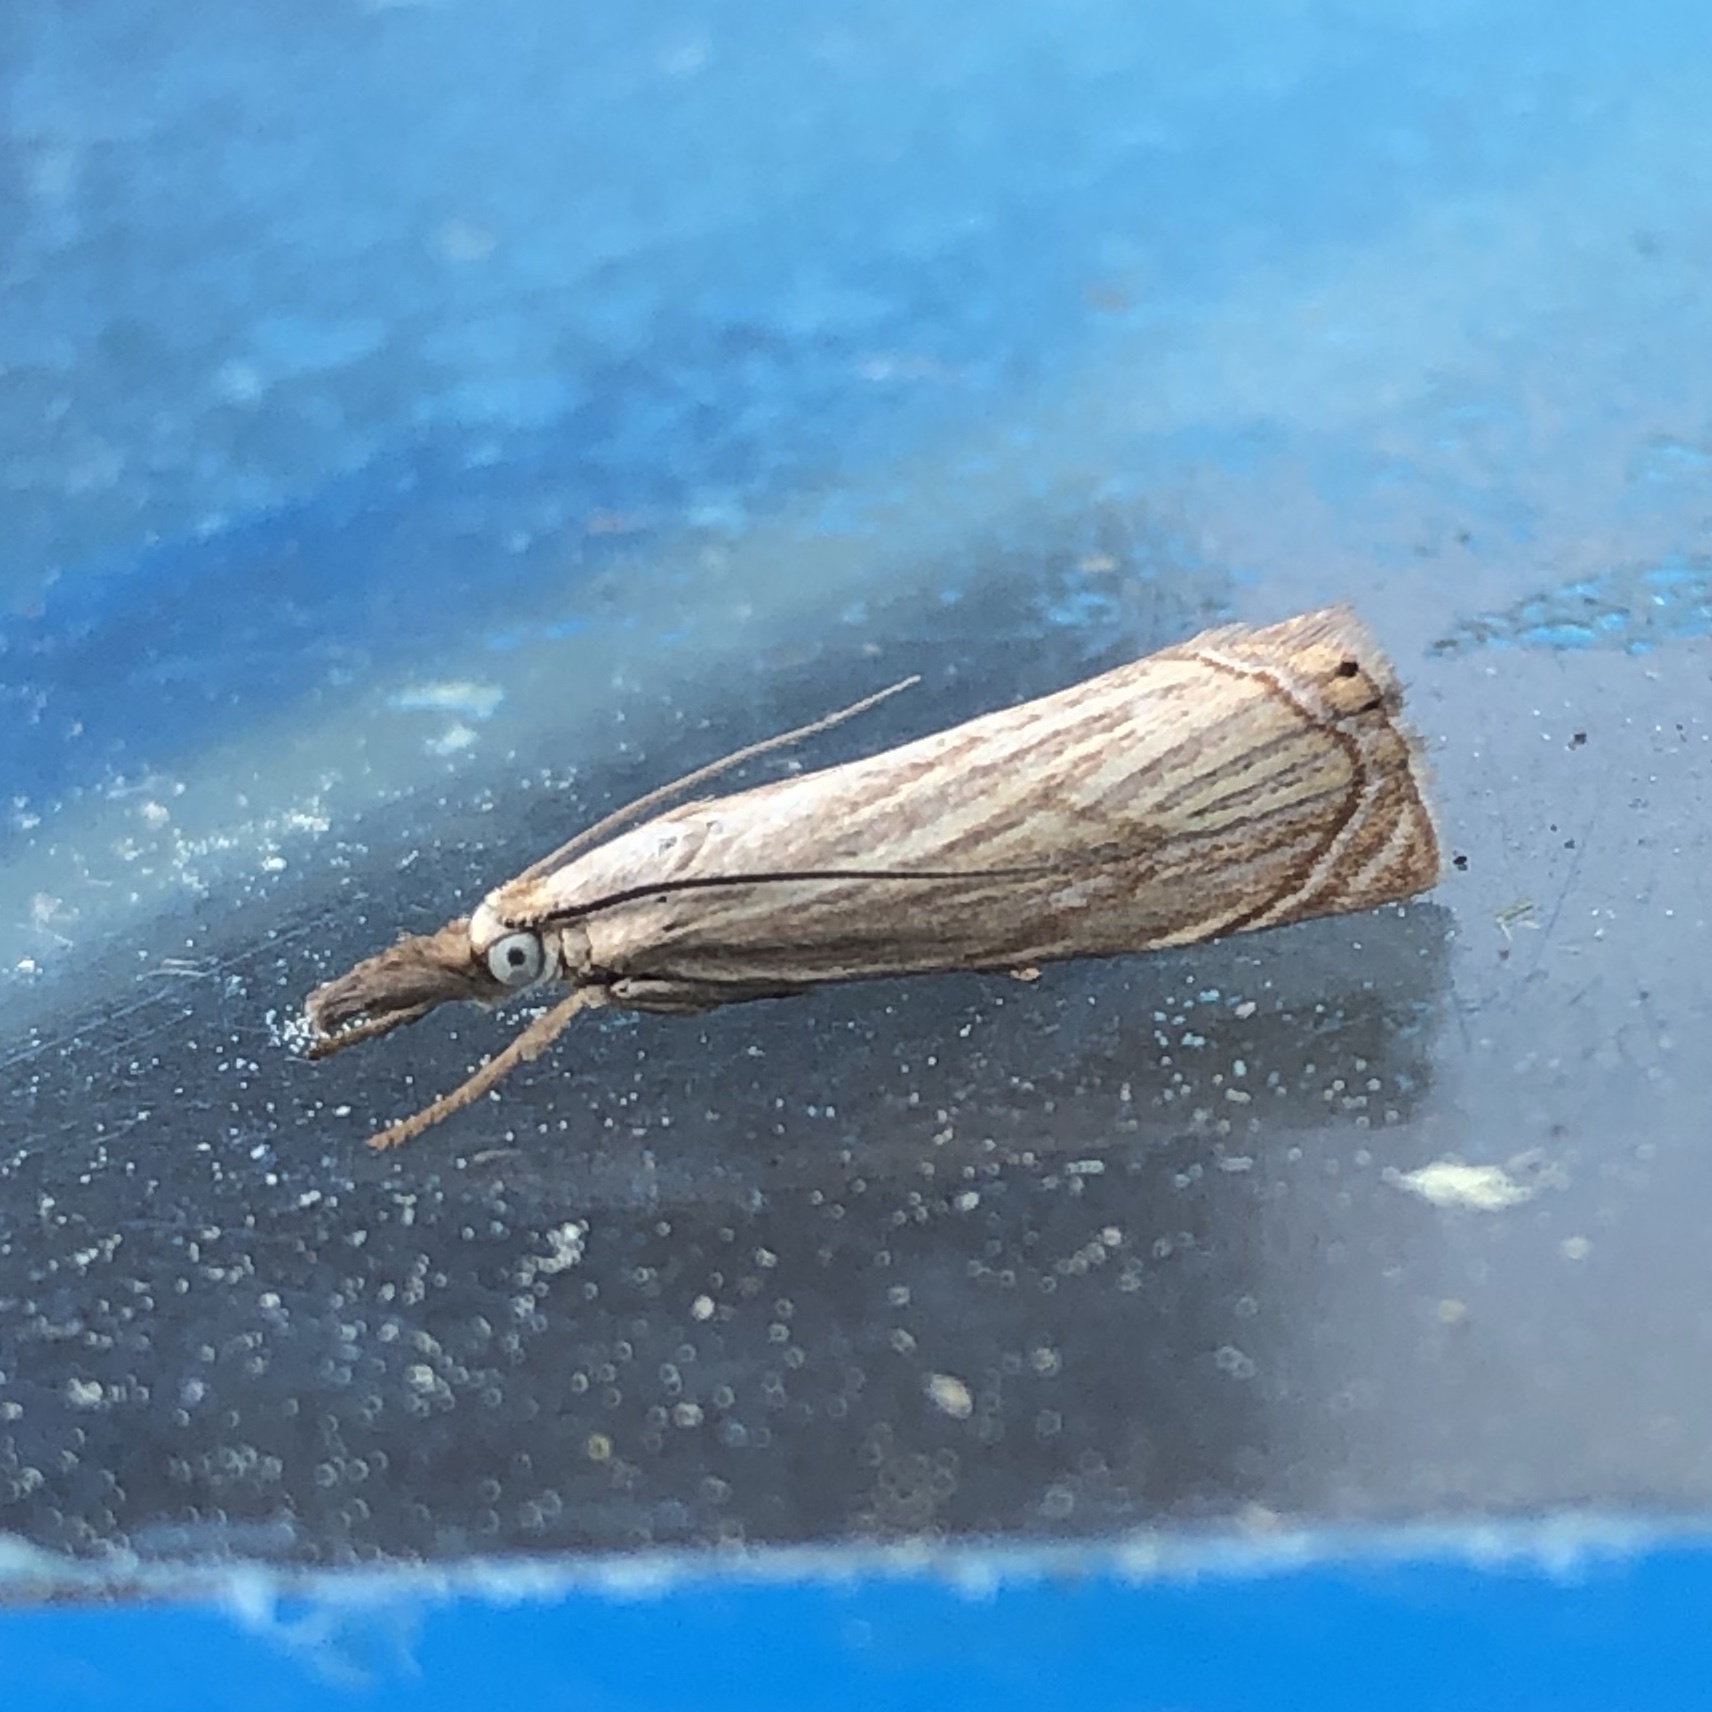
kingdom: Animalia
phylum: Arthropoda
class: Insecta
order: Lepidoptera
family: Crambidae
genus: Chrysoteuchia
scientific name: Chrysoteuchia culmella
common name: Garden grass-veneer
